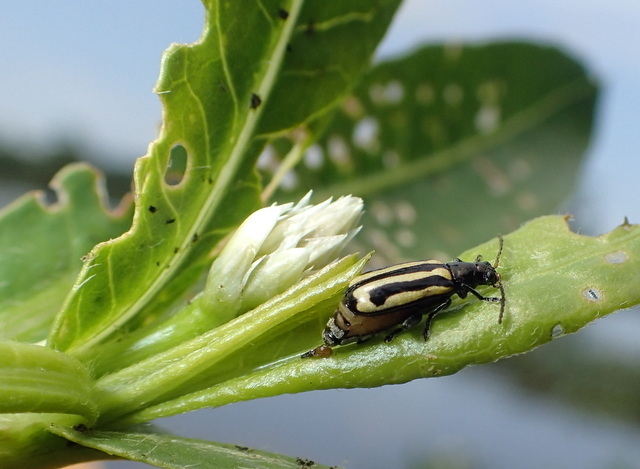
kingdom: Animalia
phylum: Arthropoda
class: Insecta
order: Coleoptera
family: Chrysomelidae
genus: Agasicles
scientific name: Agasicles hygrophila
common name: Alligatorweed flea beetle
